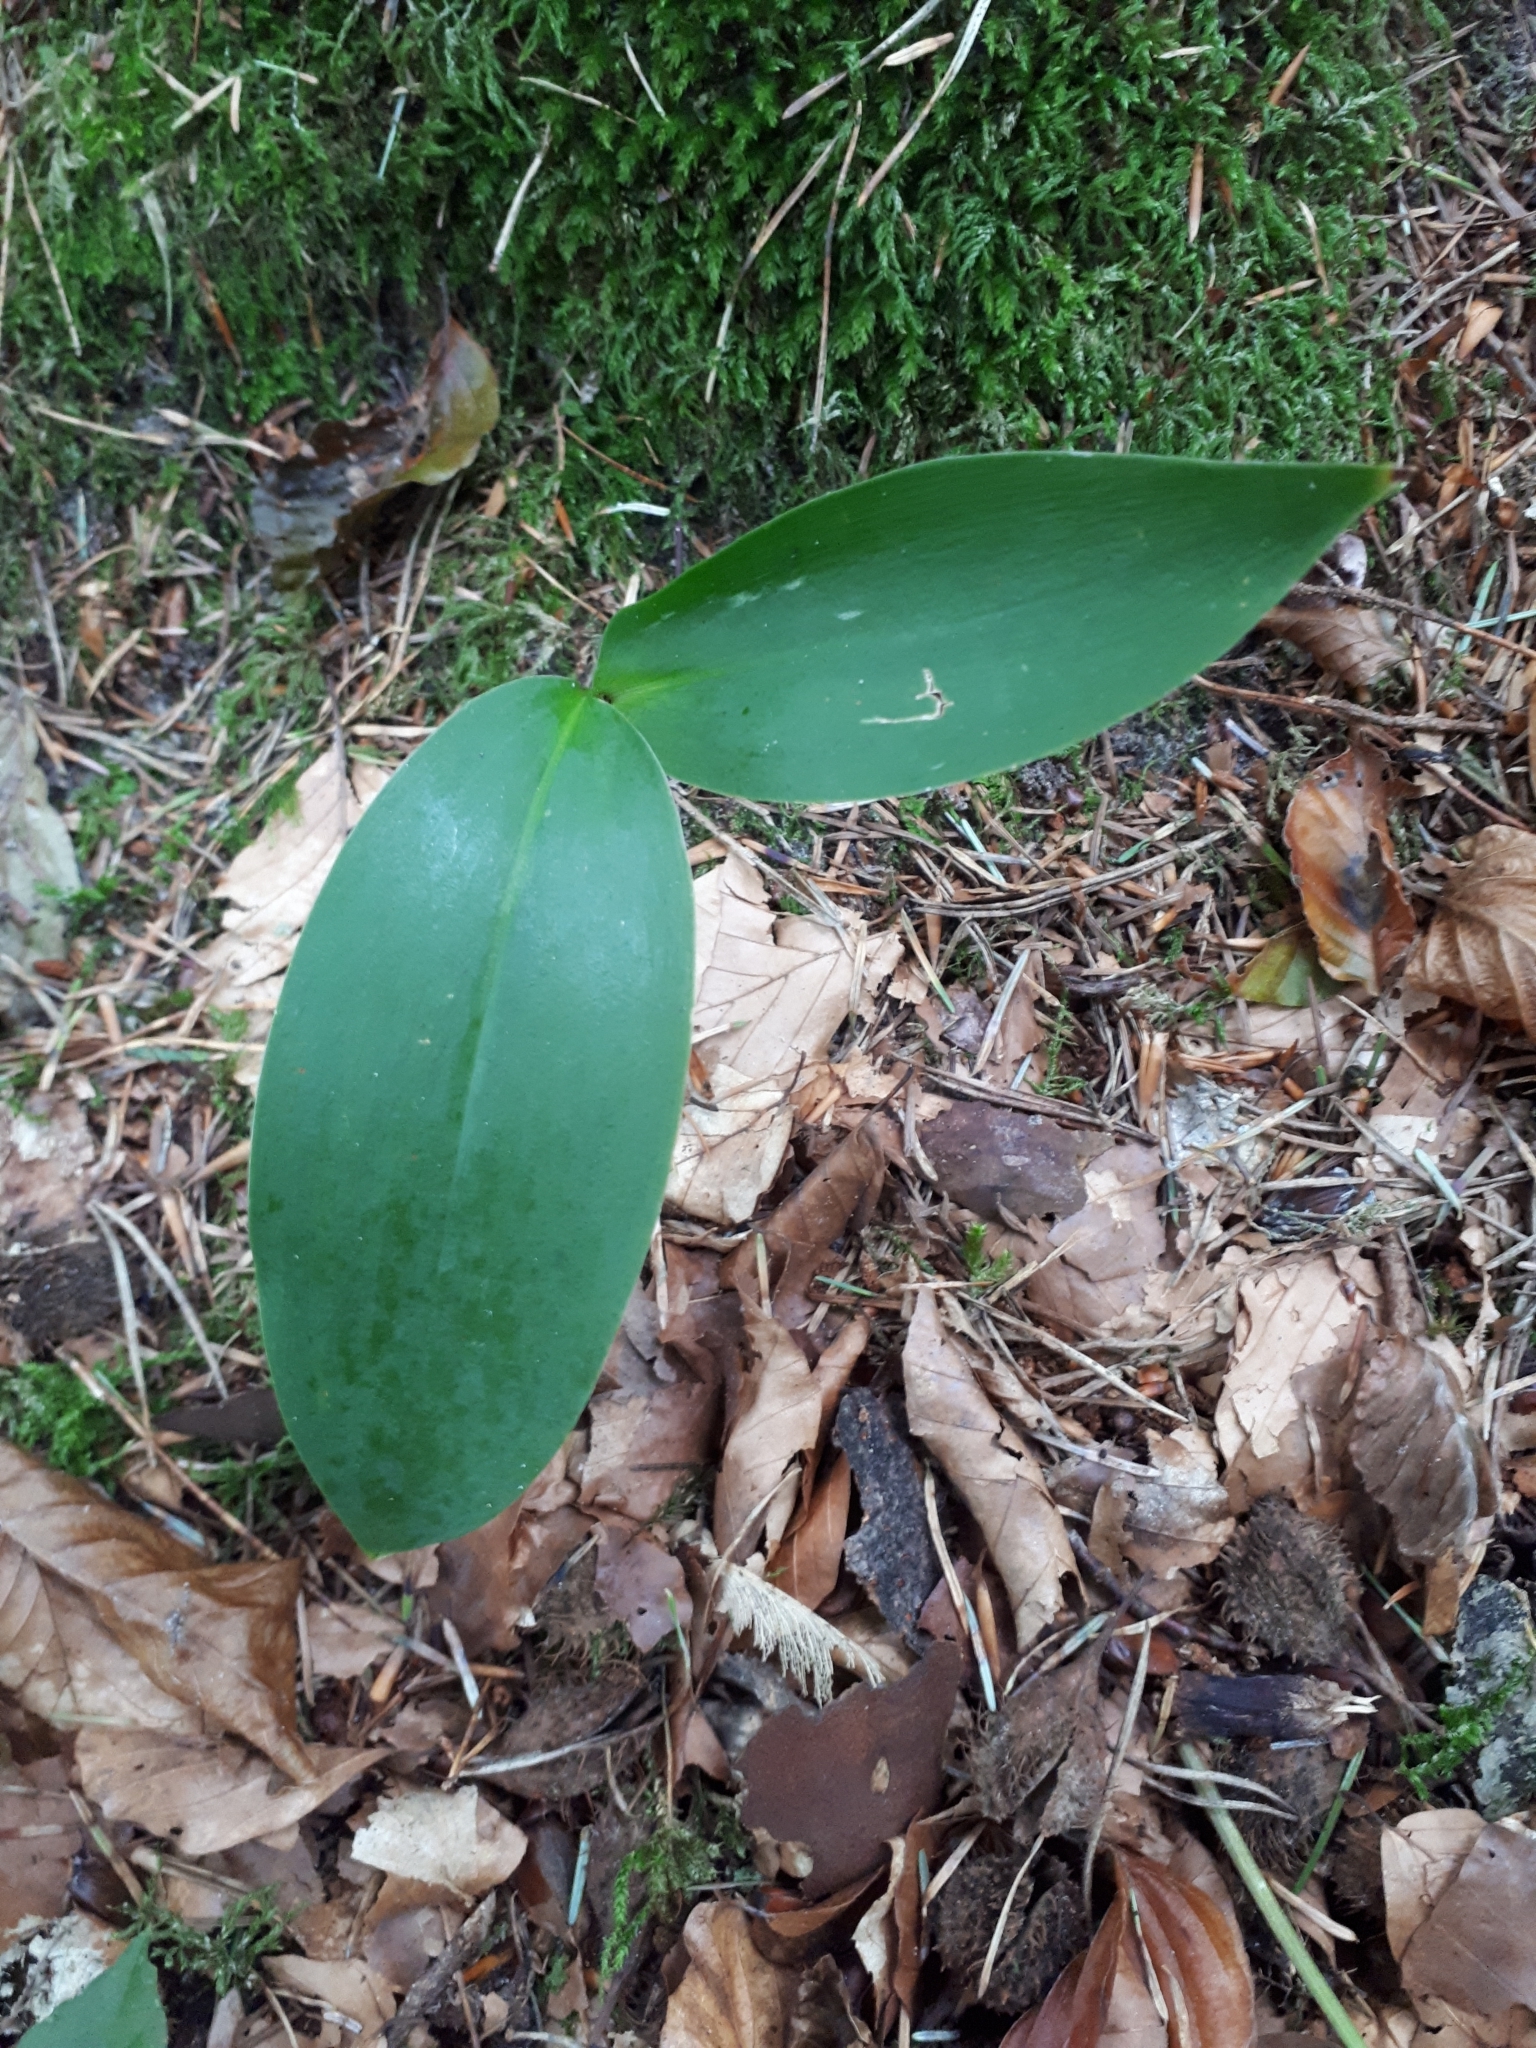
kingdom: Plantae
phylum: Tracheophyta
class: Liliopsida
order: Asparagales
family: Asparagaceae
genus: Convallaria
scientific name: Convallaria majalis
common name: Lily-of-the-valley
